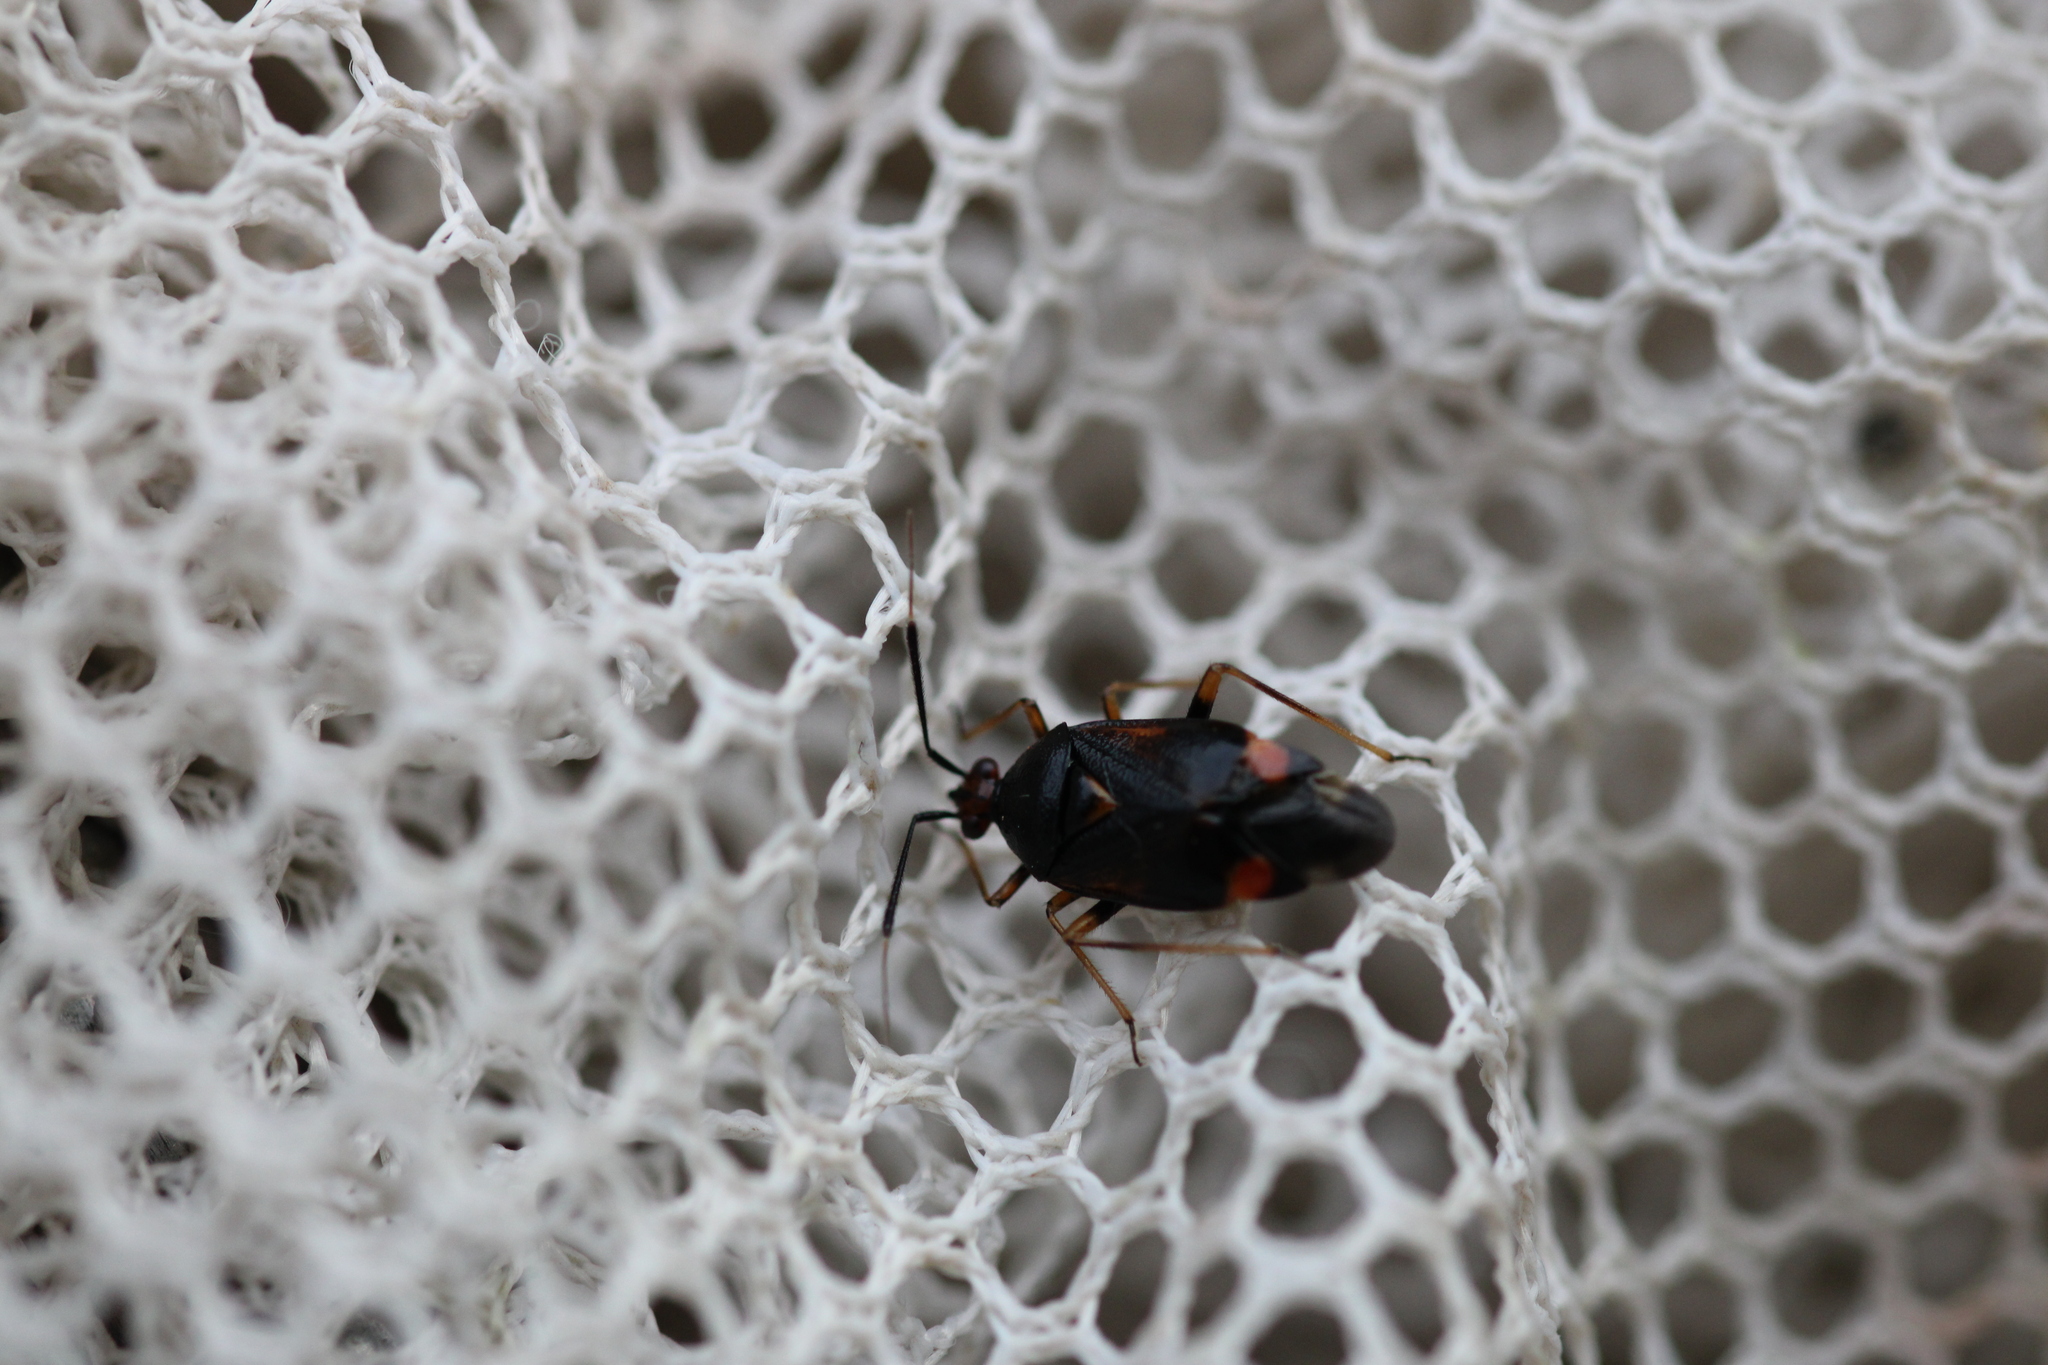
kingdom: Animalia
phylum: Arthropoda
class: Insecta
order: Hemiptera
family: Miridae
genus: Deraeocoris
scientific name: Deraeocoris ruber
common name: Plant bug
